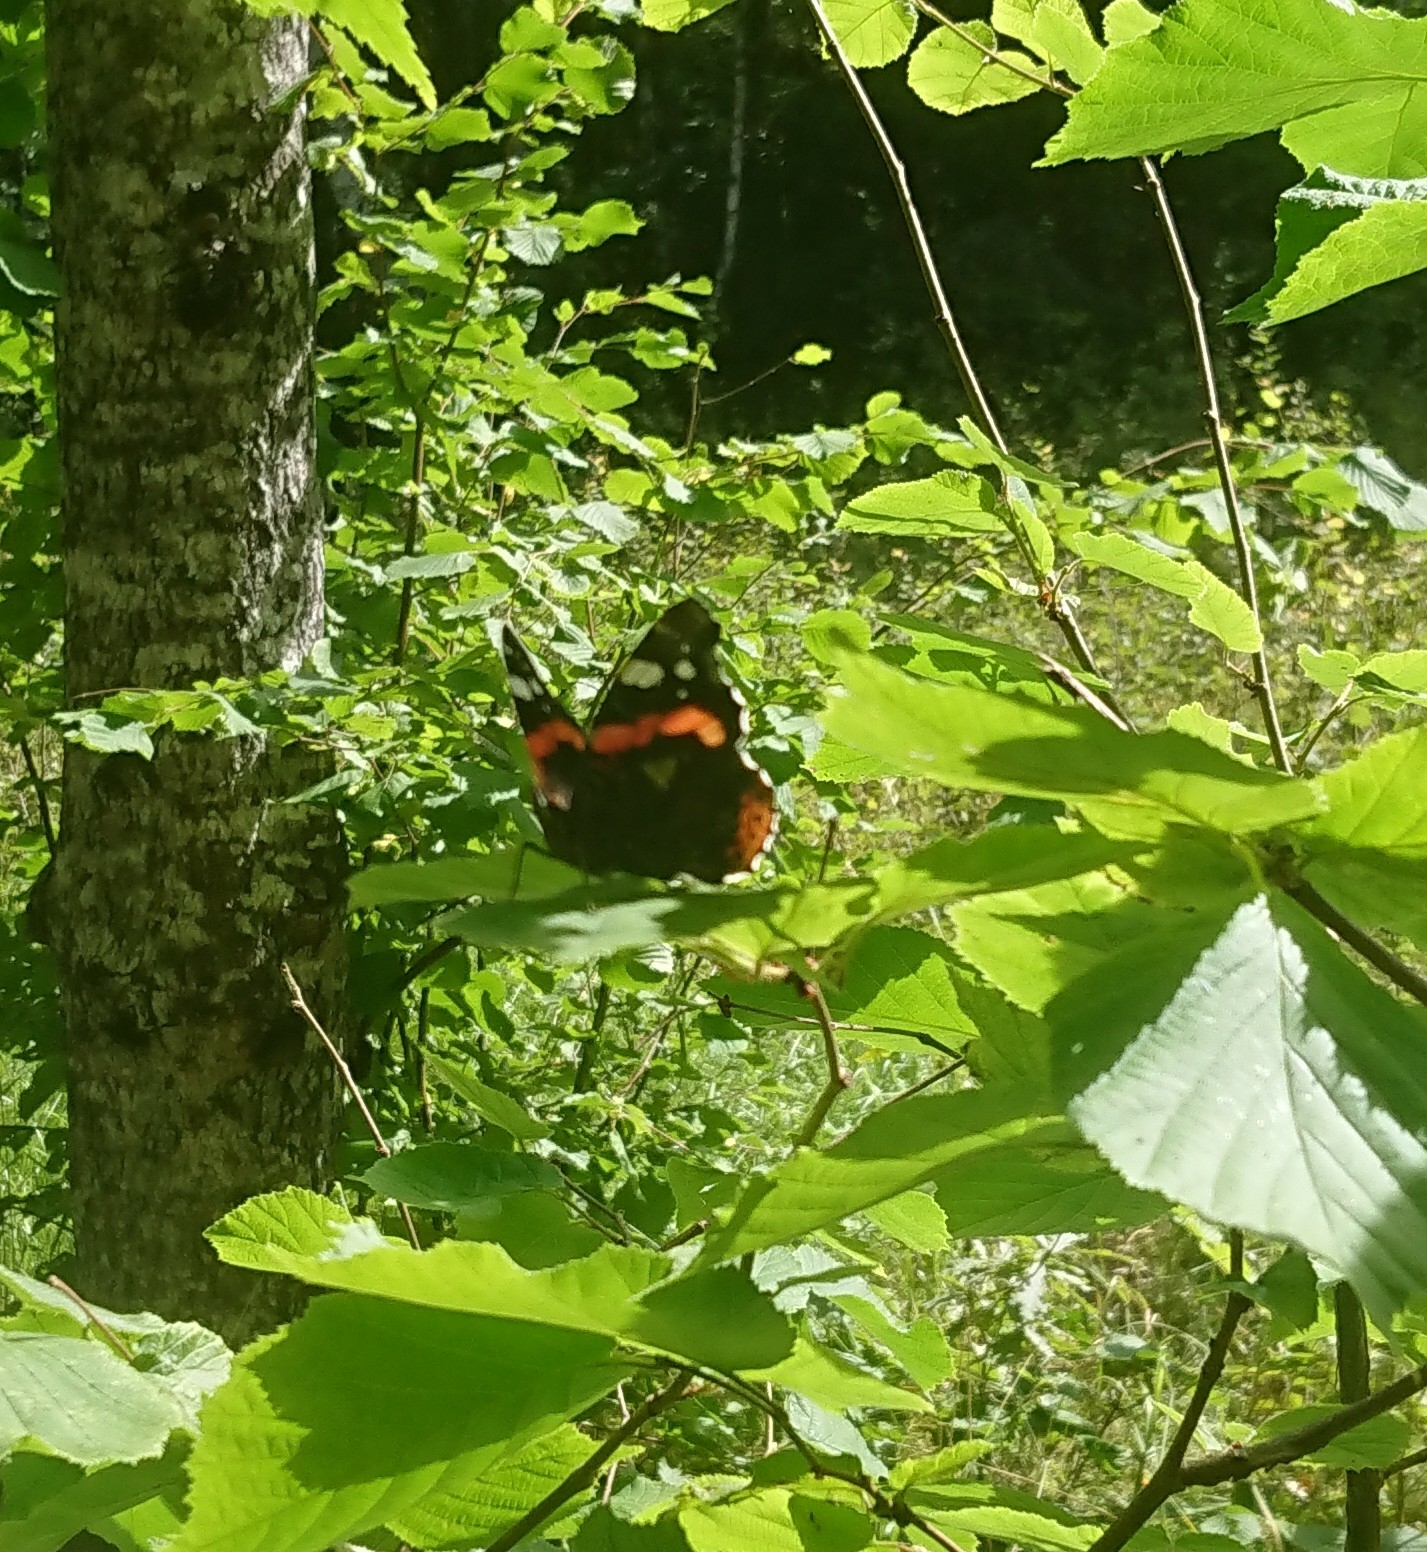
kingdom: Animalia
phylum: Arthropoda
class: Insecta
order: Lepidoptera
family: Nymphalidae
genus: Vanessa
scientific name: Vanessa atalanta
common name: Red admiral
